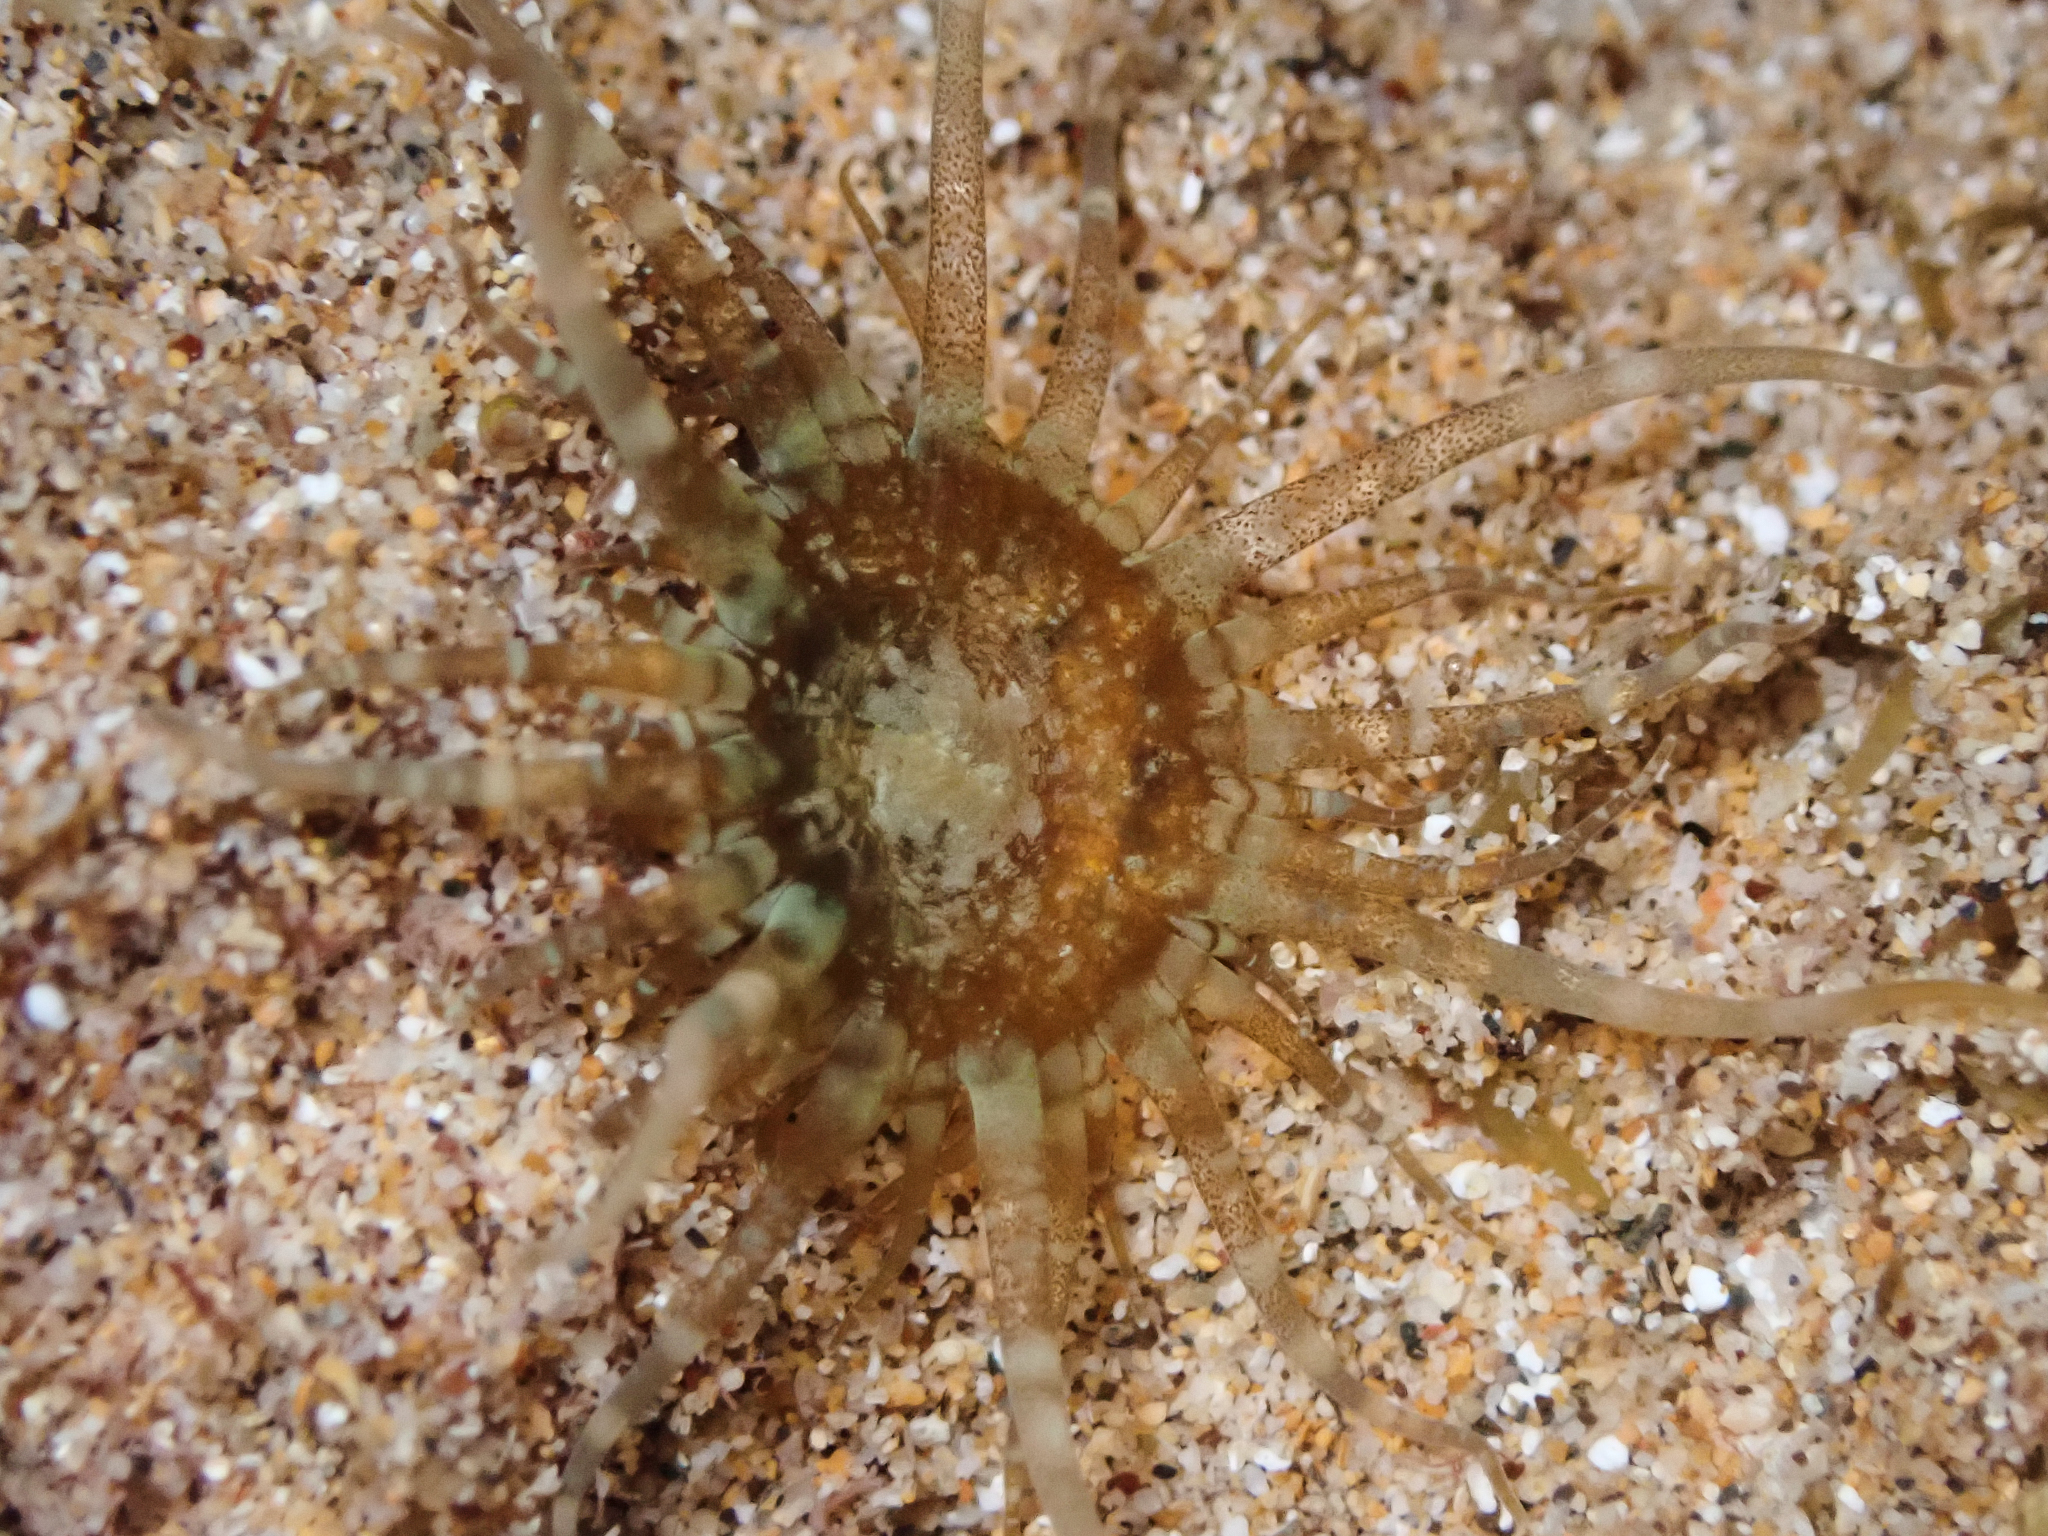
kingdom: Animalia
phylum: Cnidaria
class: Anthozoa
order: Actiniaria
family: Aiptasiidae
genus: Exaiptasia
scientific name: Exaiptasia diaphana
